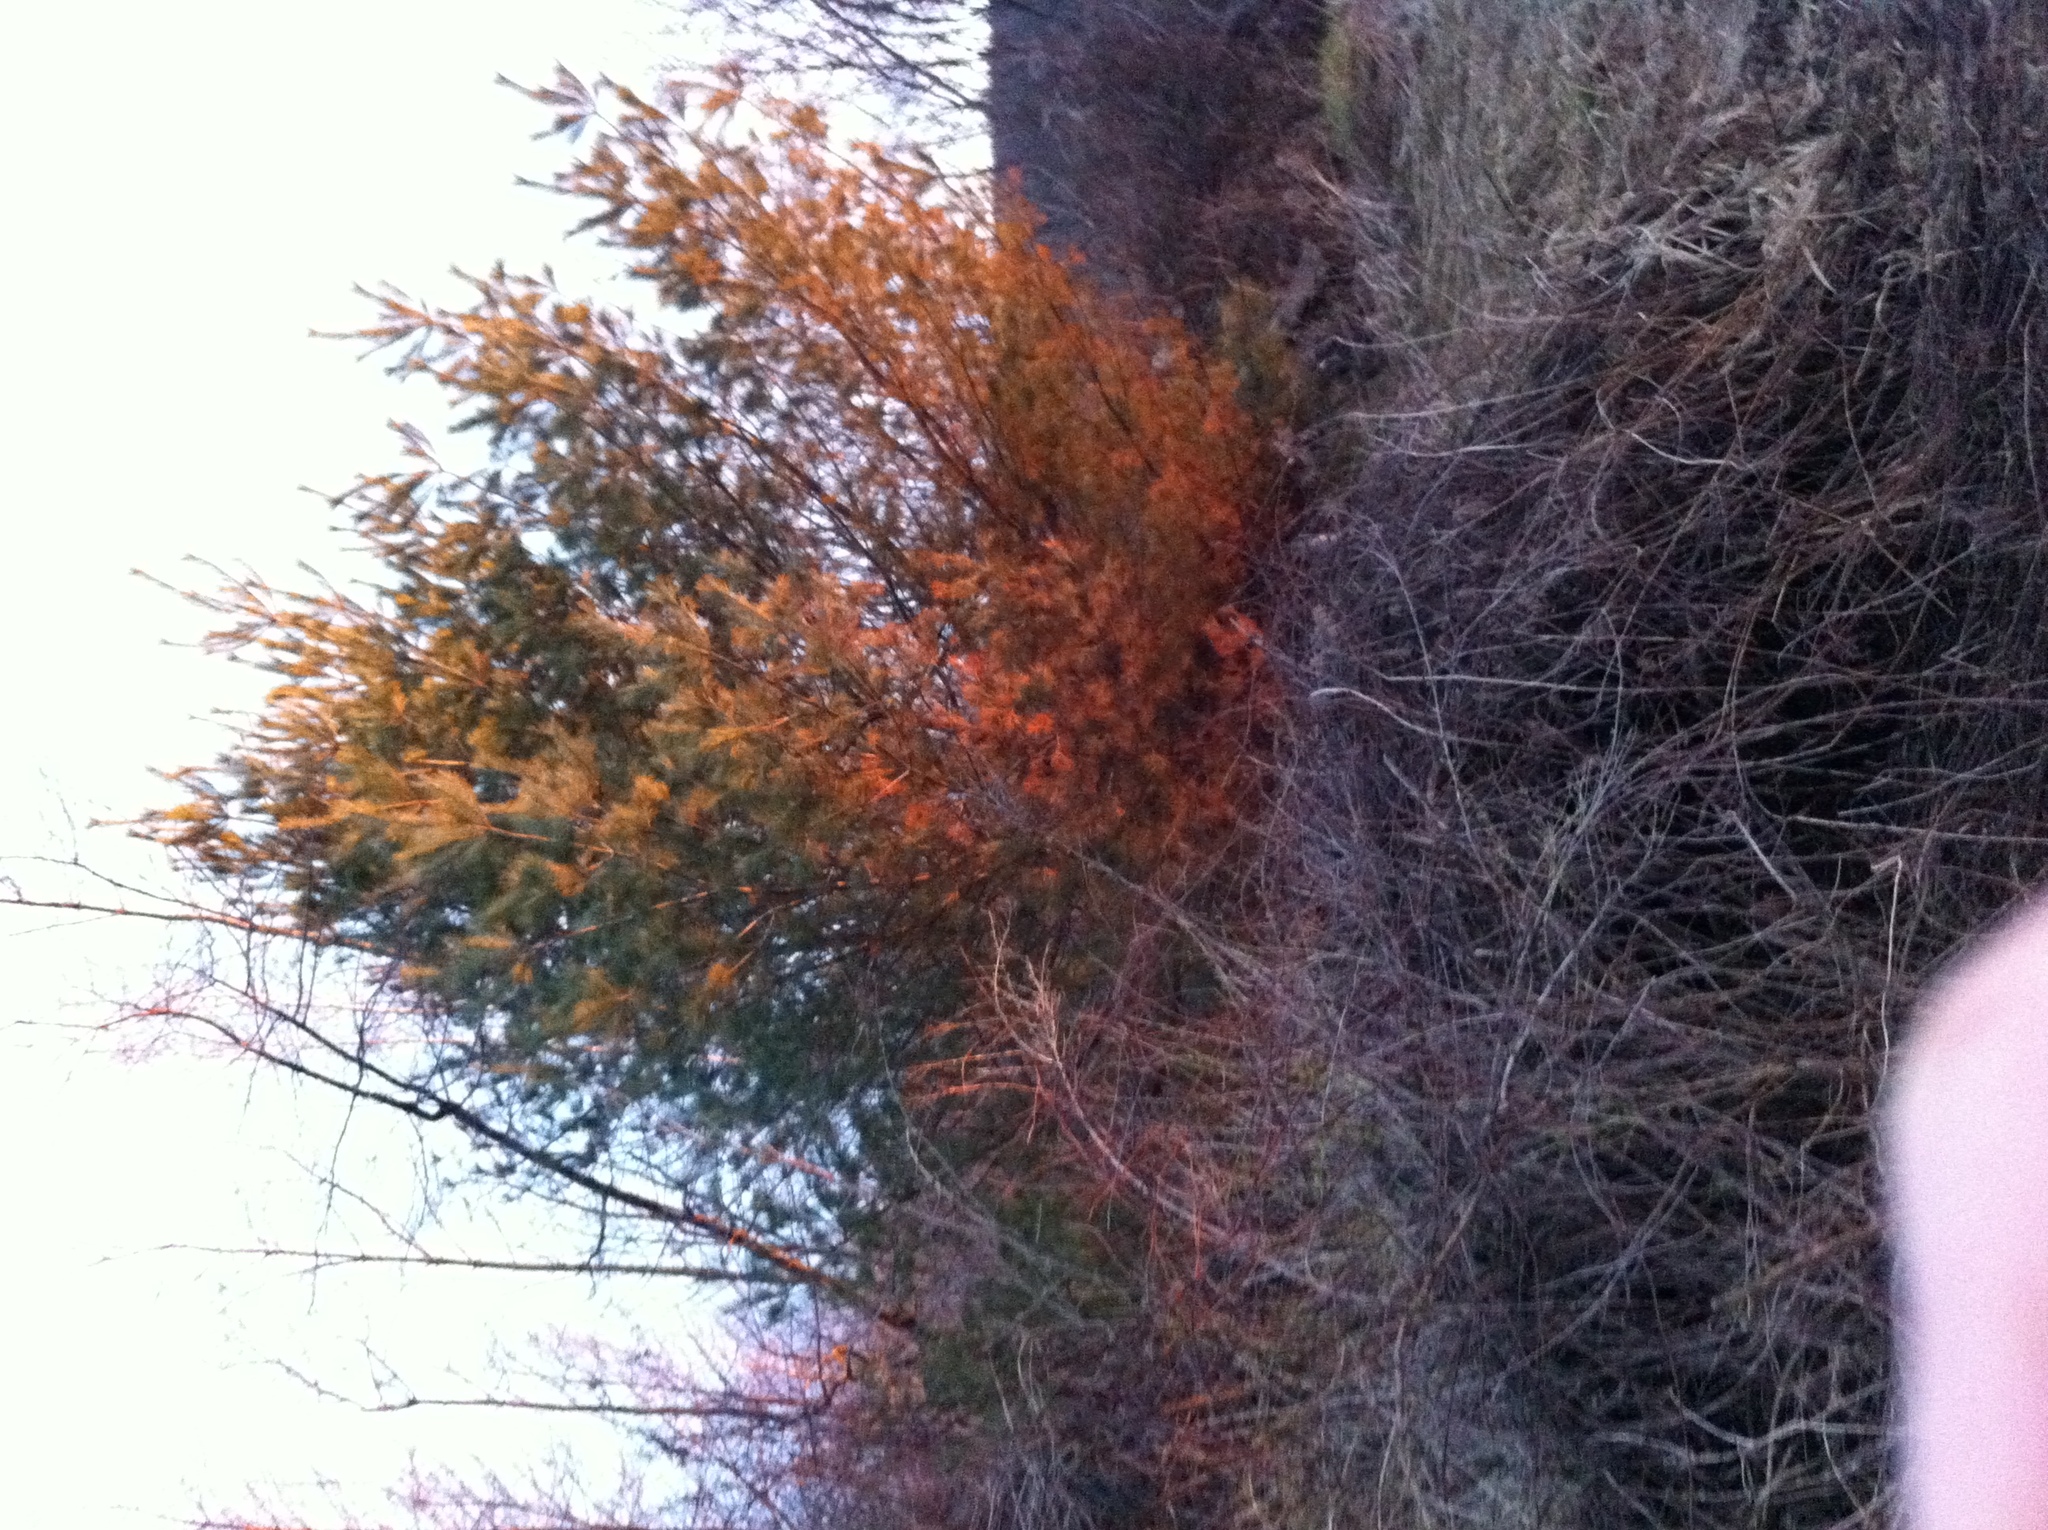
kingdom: Plantae
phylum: Tracheophyta
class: Pinopsida
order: Pinales
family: Pinaceae
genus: Pinus
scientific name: Pinus strobus
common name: Weymouth pine
